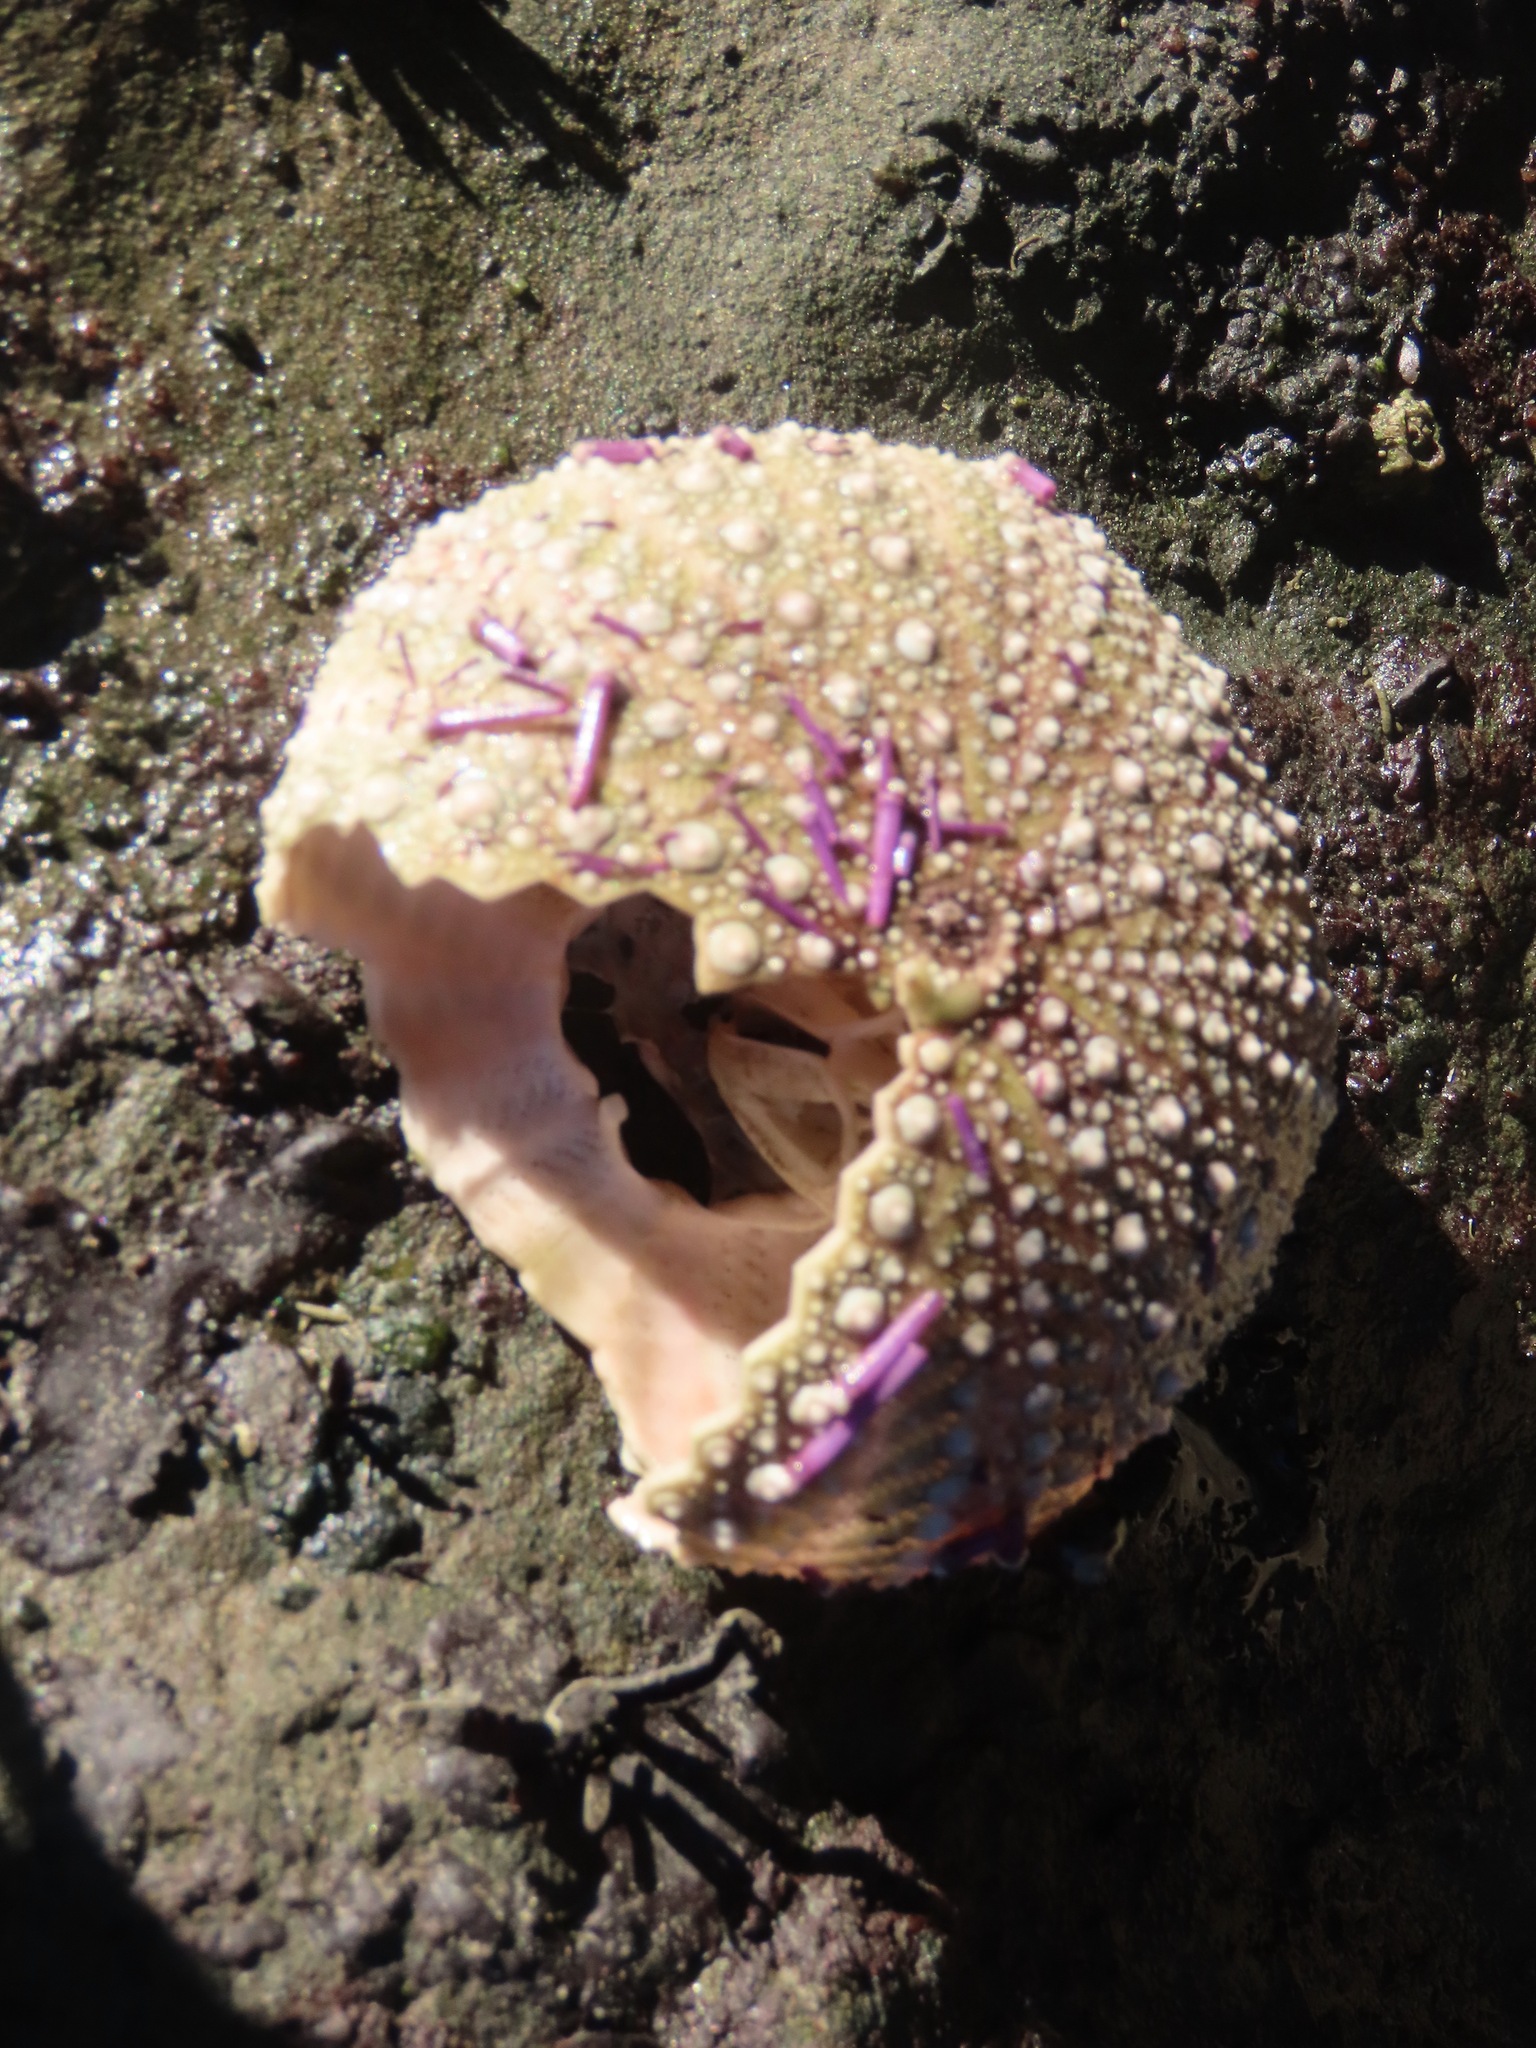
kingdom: Animalia
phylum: Echinodermata
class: Echinoidea
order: Camarodonta
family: Strongylocentrotidae
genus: Strongylocentrotus
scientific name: Strongylocentrotus purpuratus
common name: Purple sea urchin
